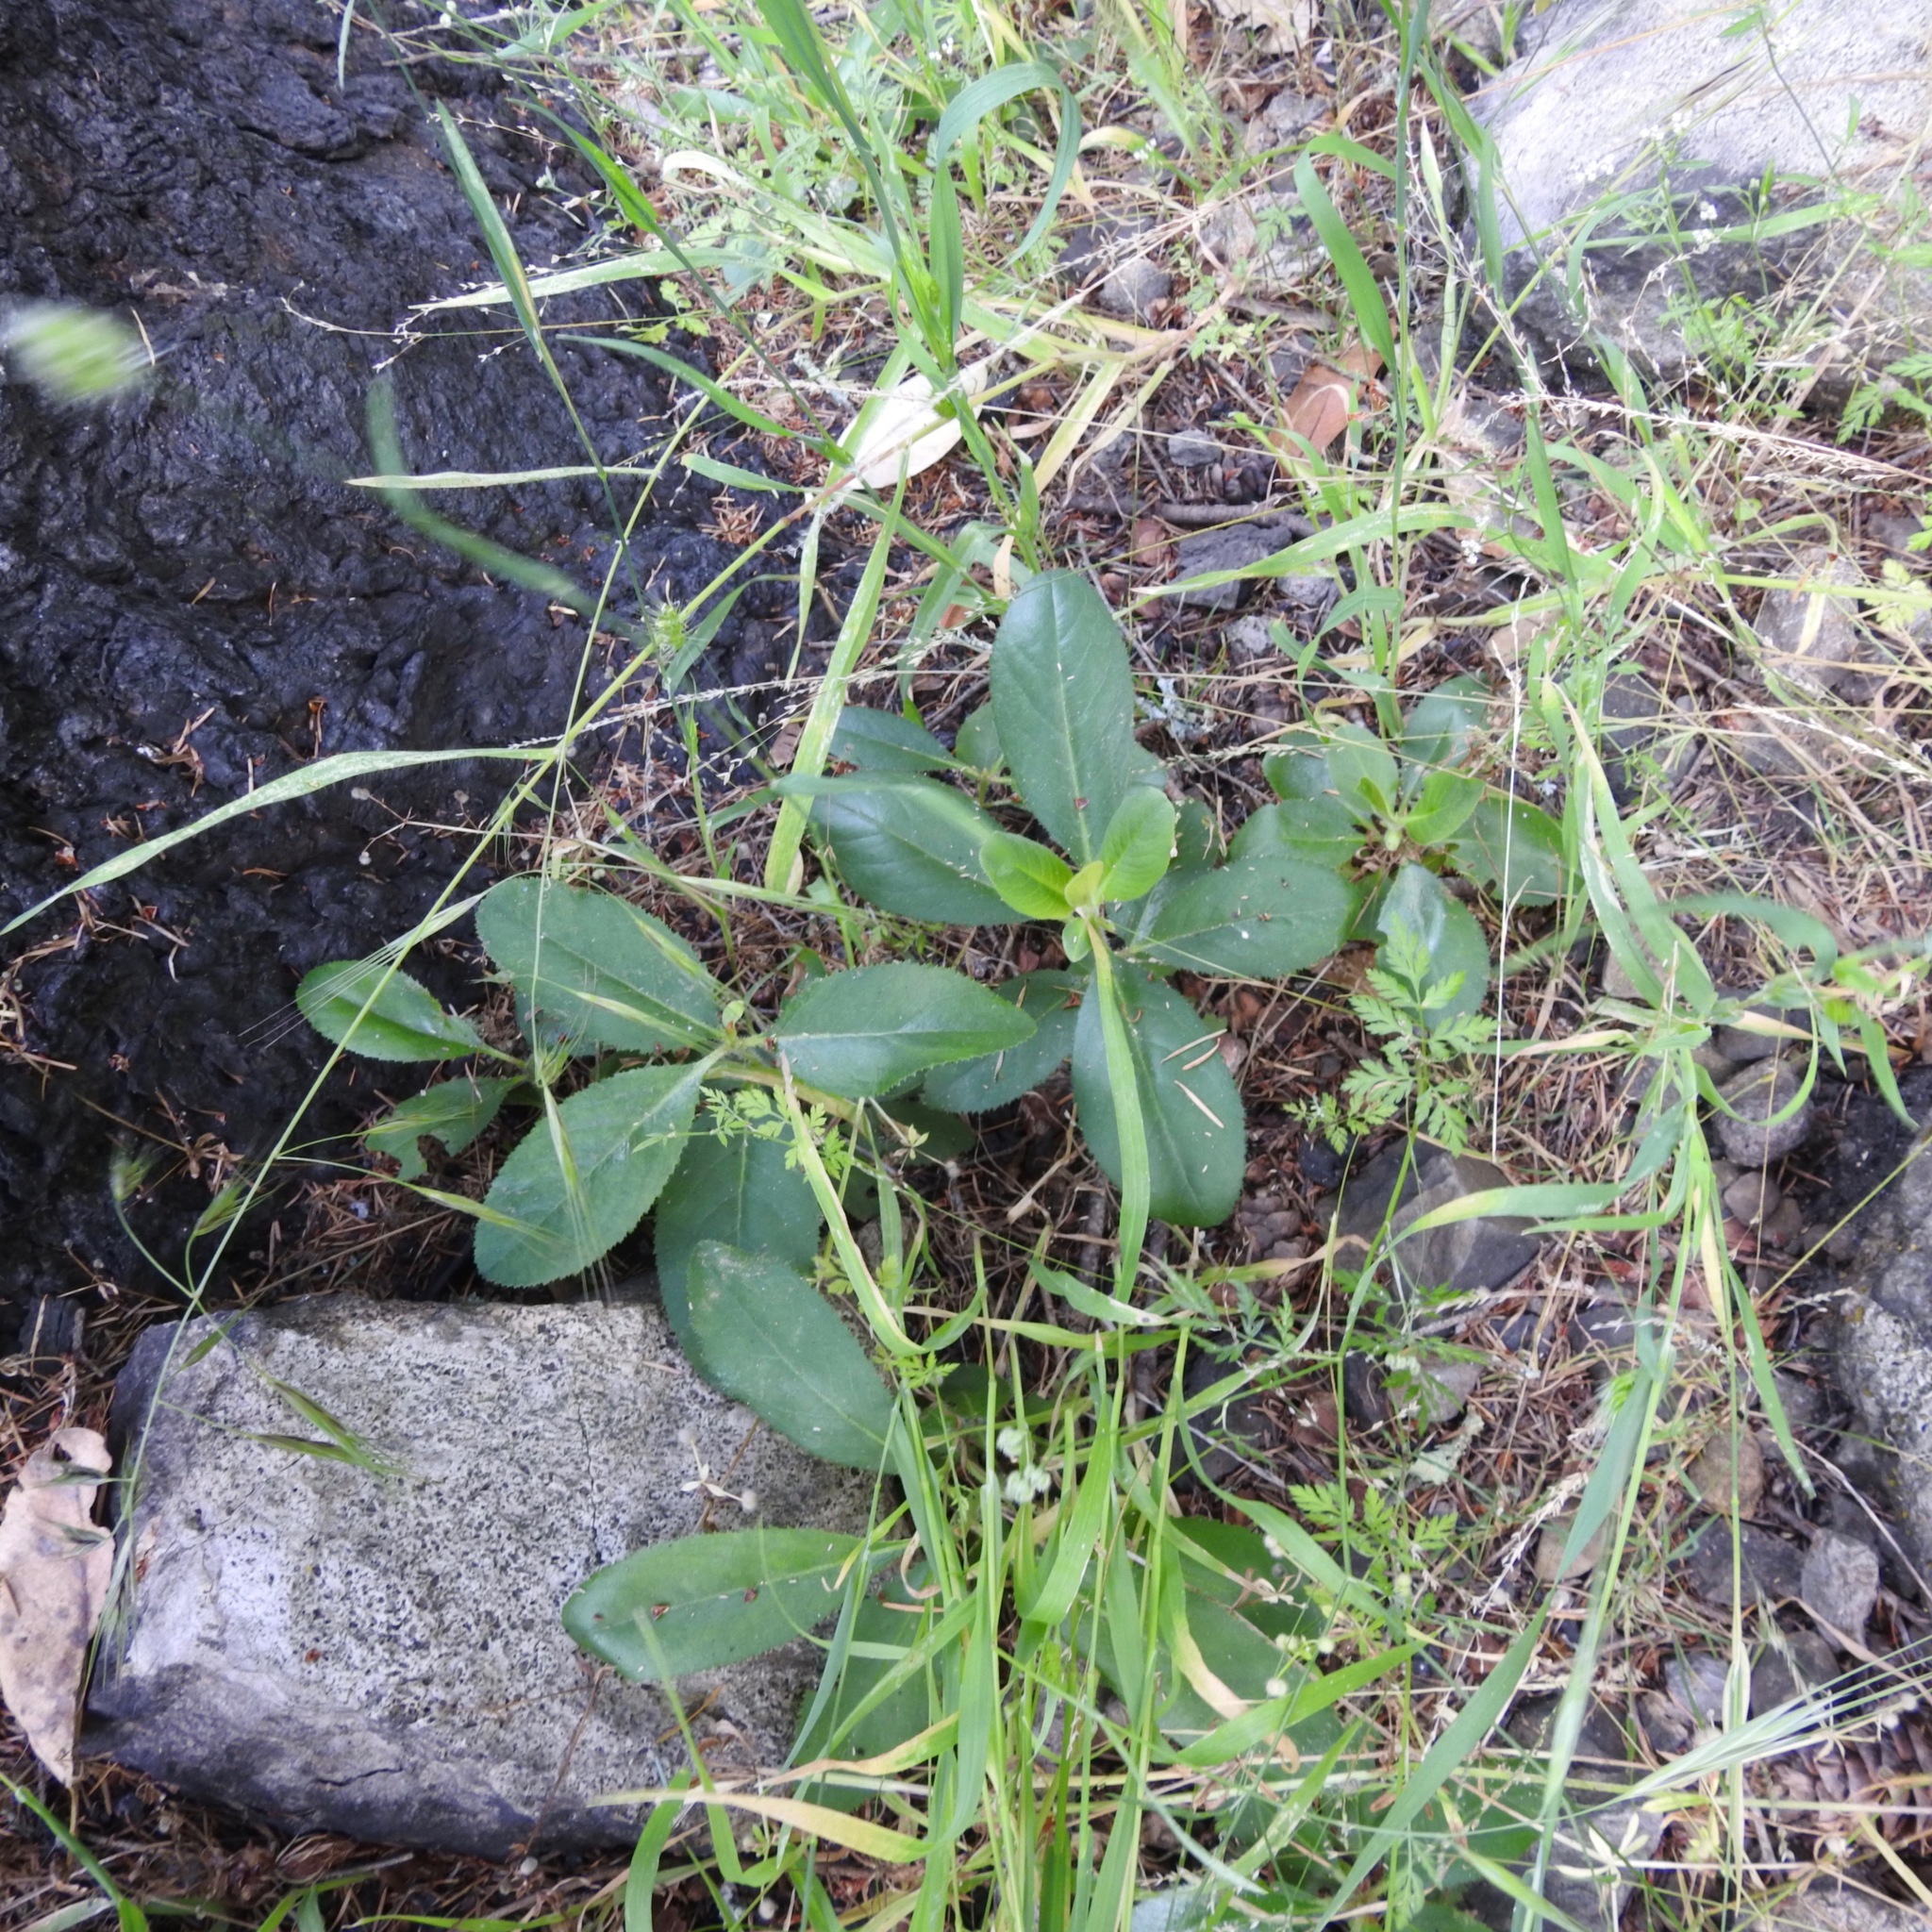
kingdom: Plantae
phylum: Tracheophyta
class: Magnoliopsida
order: Ericales
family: Ericaceae
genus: Arbutus
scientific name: Arbutus menziesii
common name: Pacific madrone
